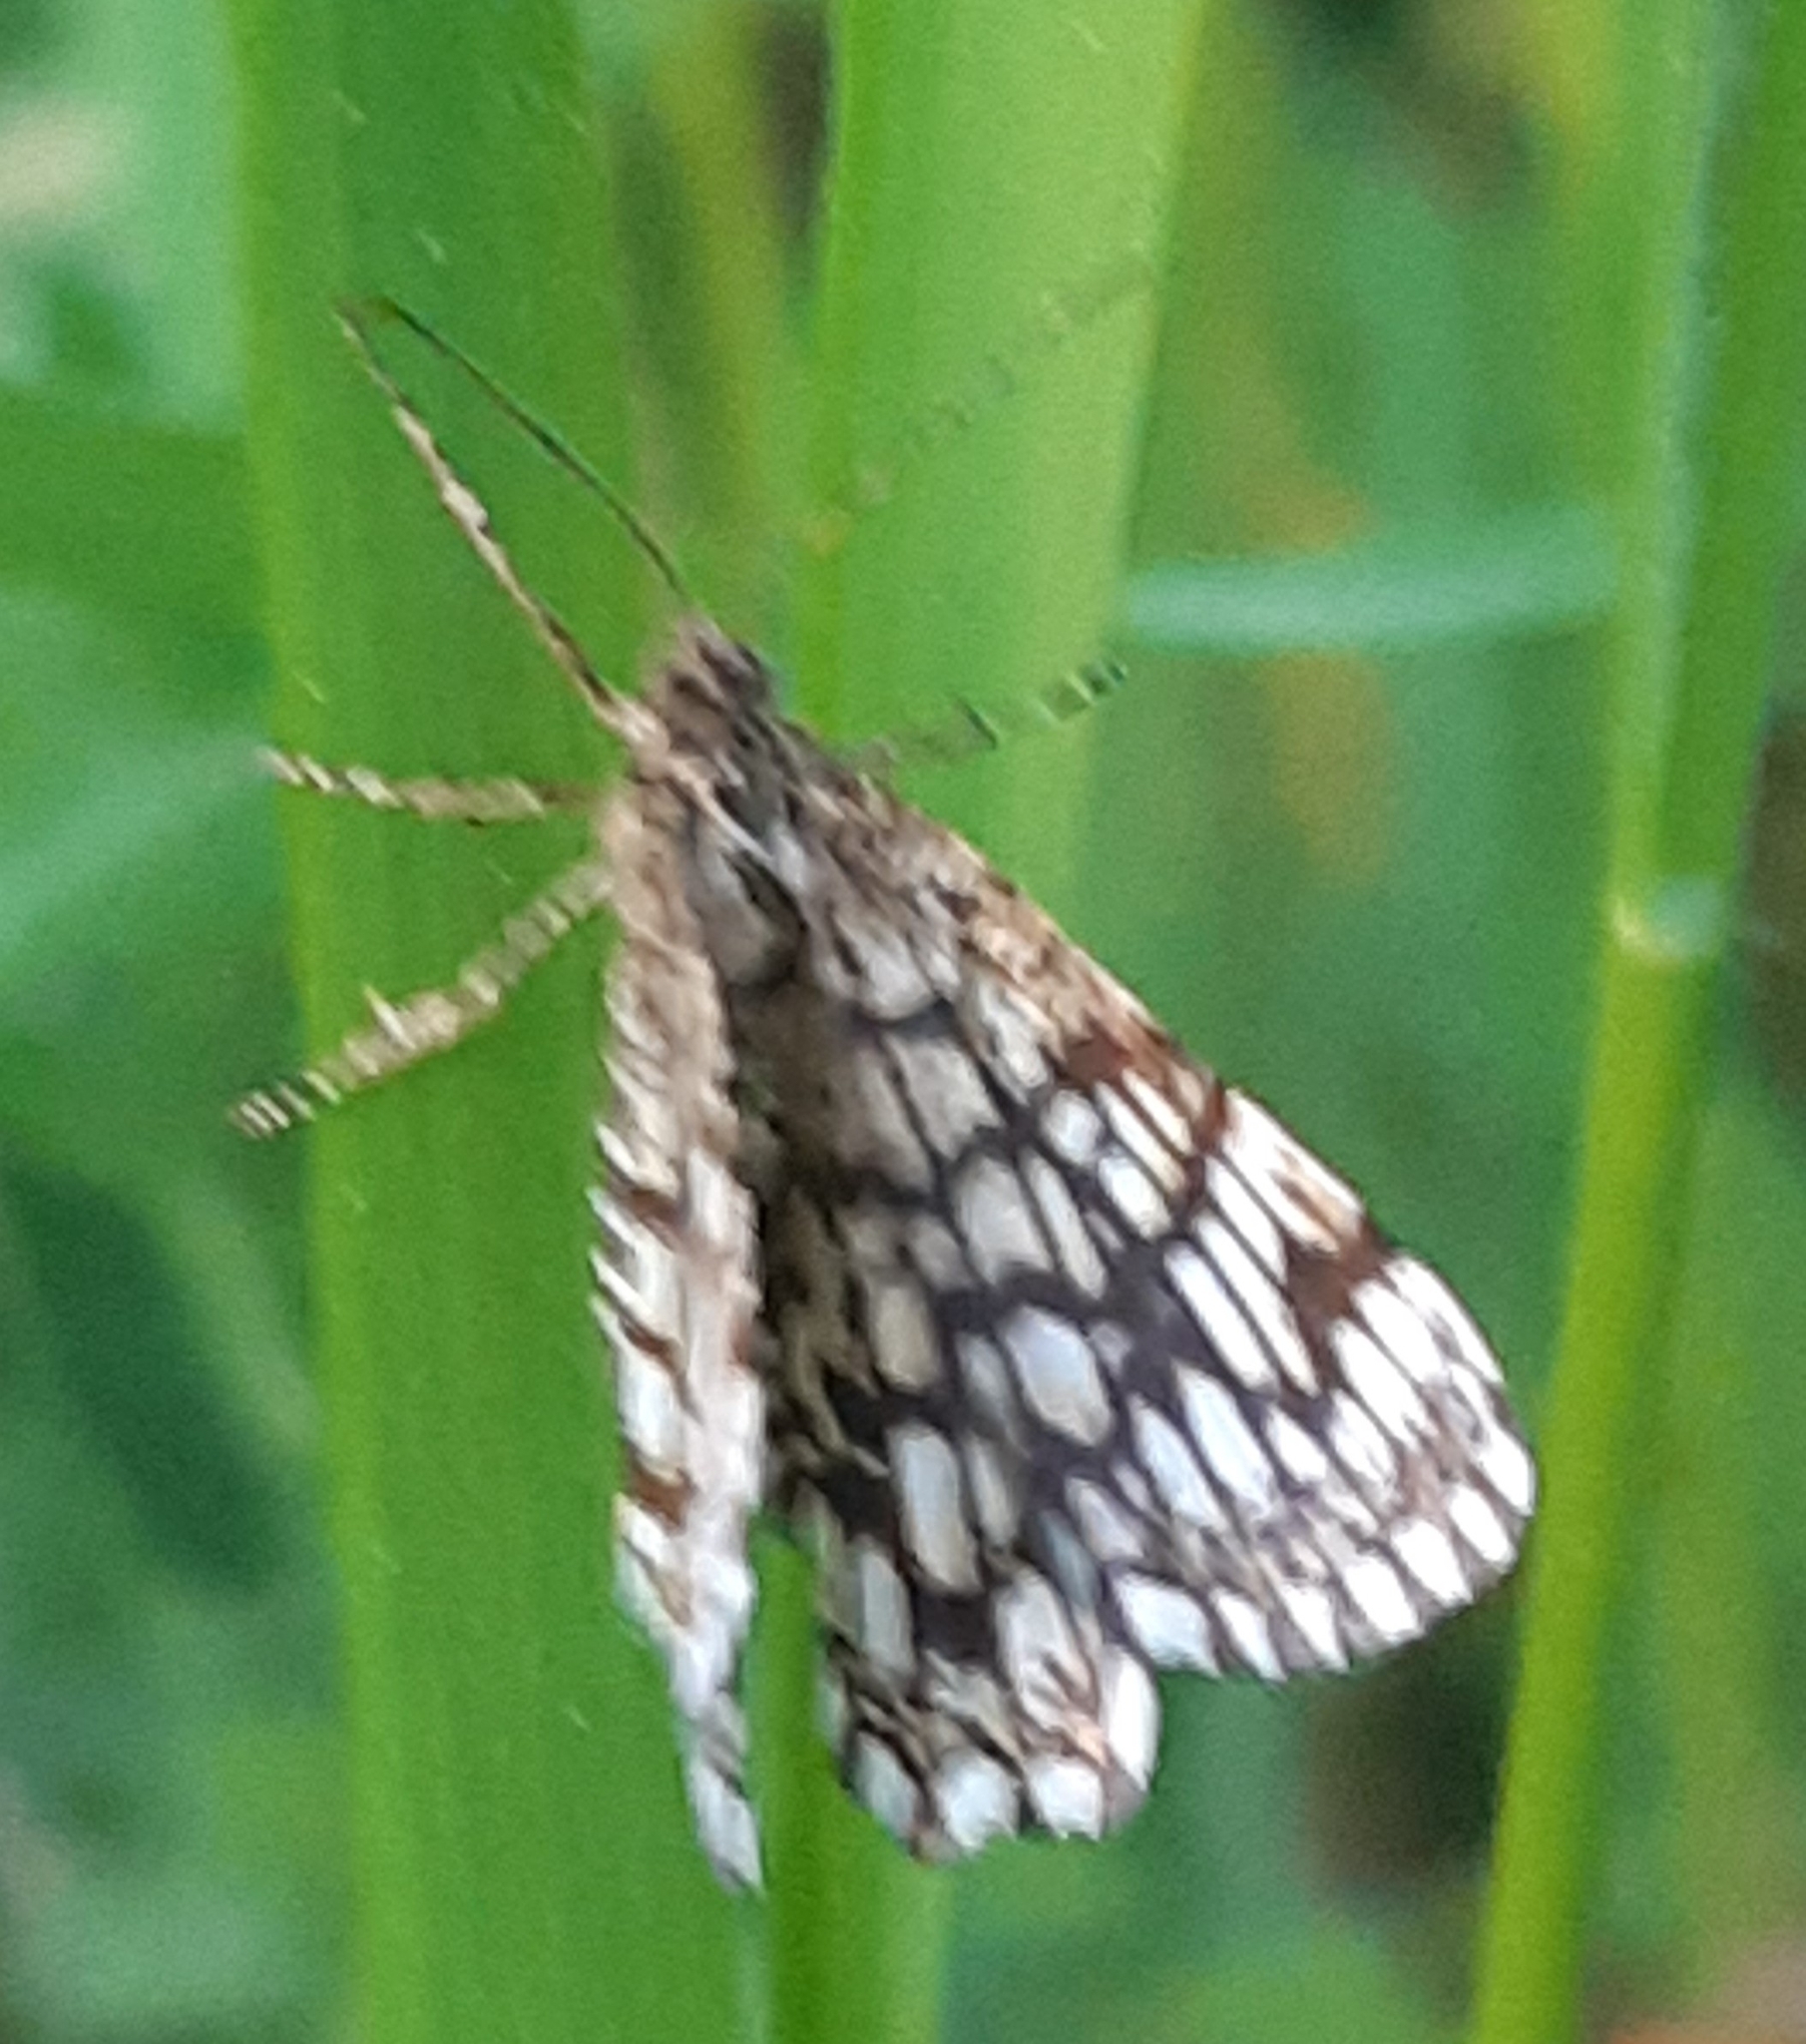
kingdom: Animalia
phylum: Arthropoda
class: Insecta
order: Lepidoptera
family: Geometridae
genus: Chiasmia
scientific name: Chiasmia clathrata
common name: Latticed heath
